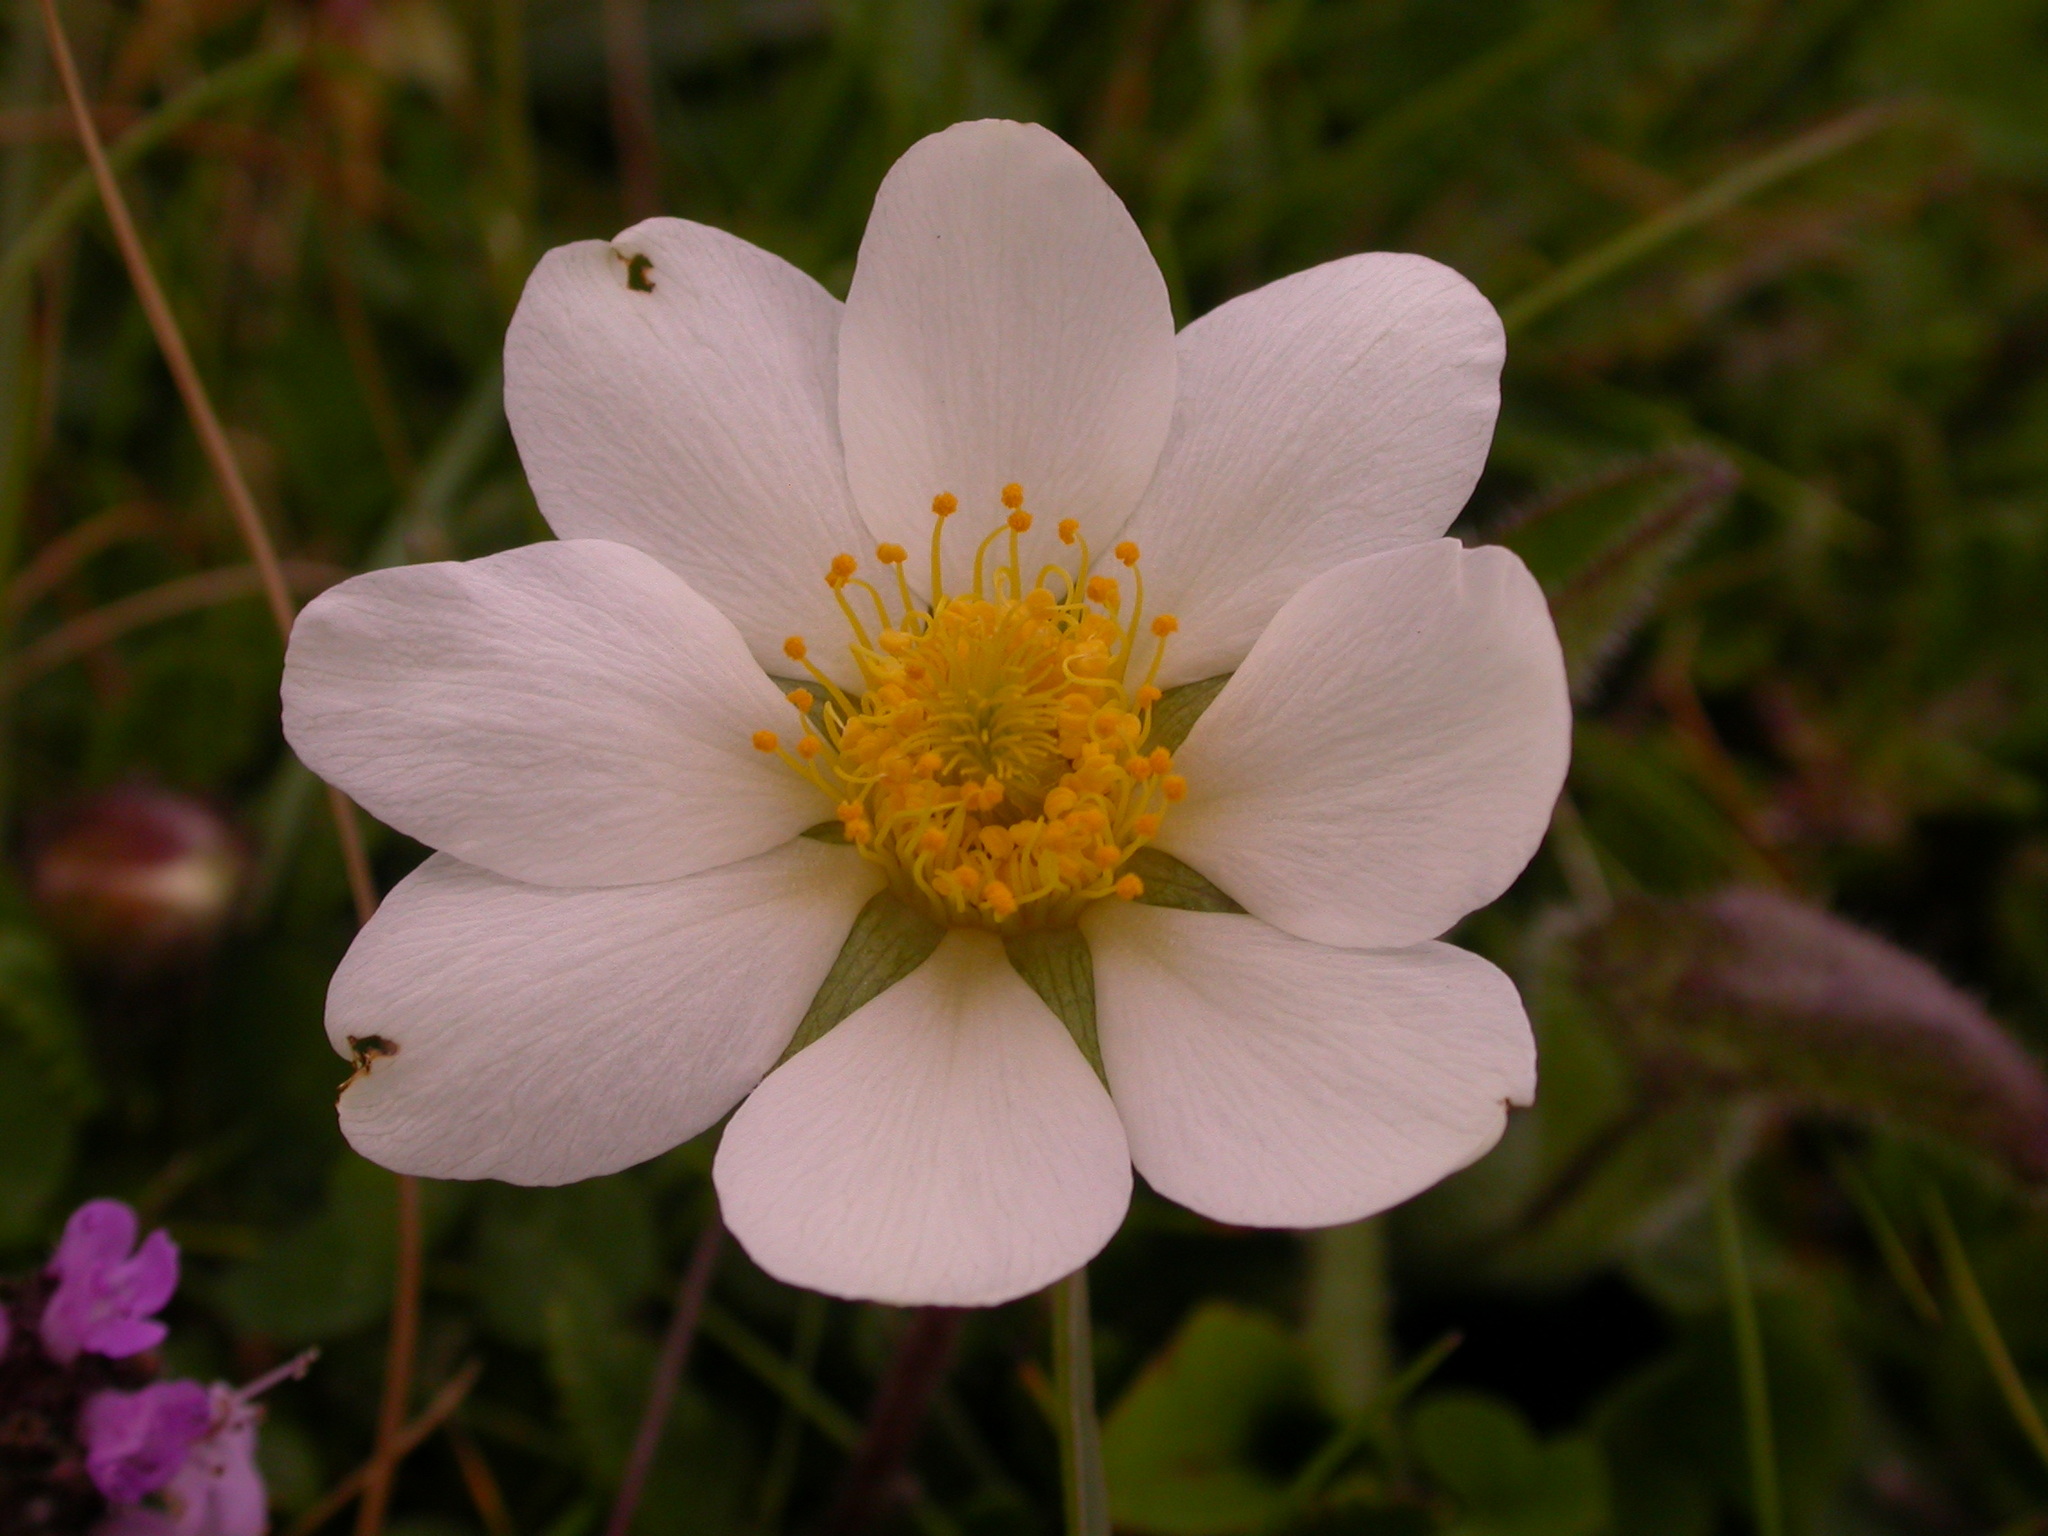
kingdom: Plantae
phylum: Tracheophyta
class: Magnoliopsida
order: Rosales
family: Rosaceae
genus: Dryas
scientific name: Dryas octopetala
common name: Eight-petal mountain-avens
